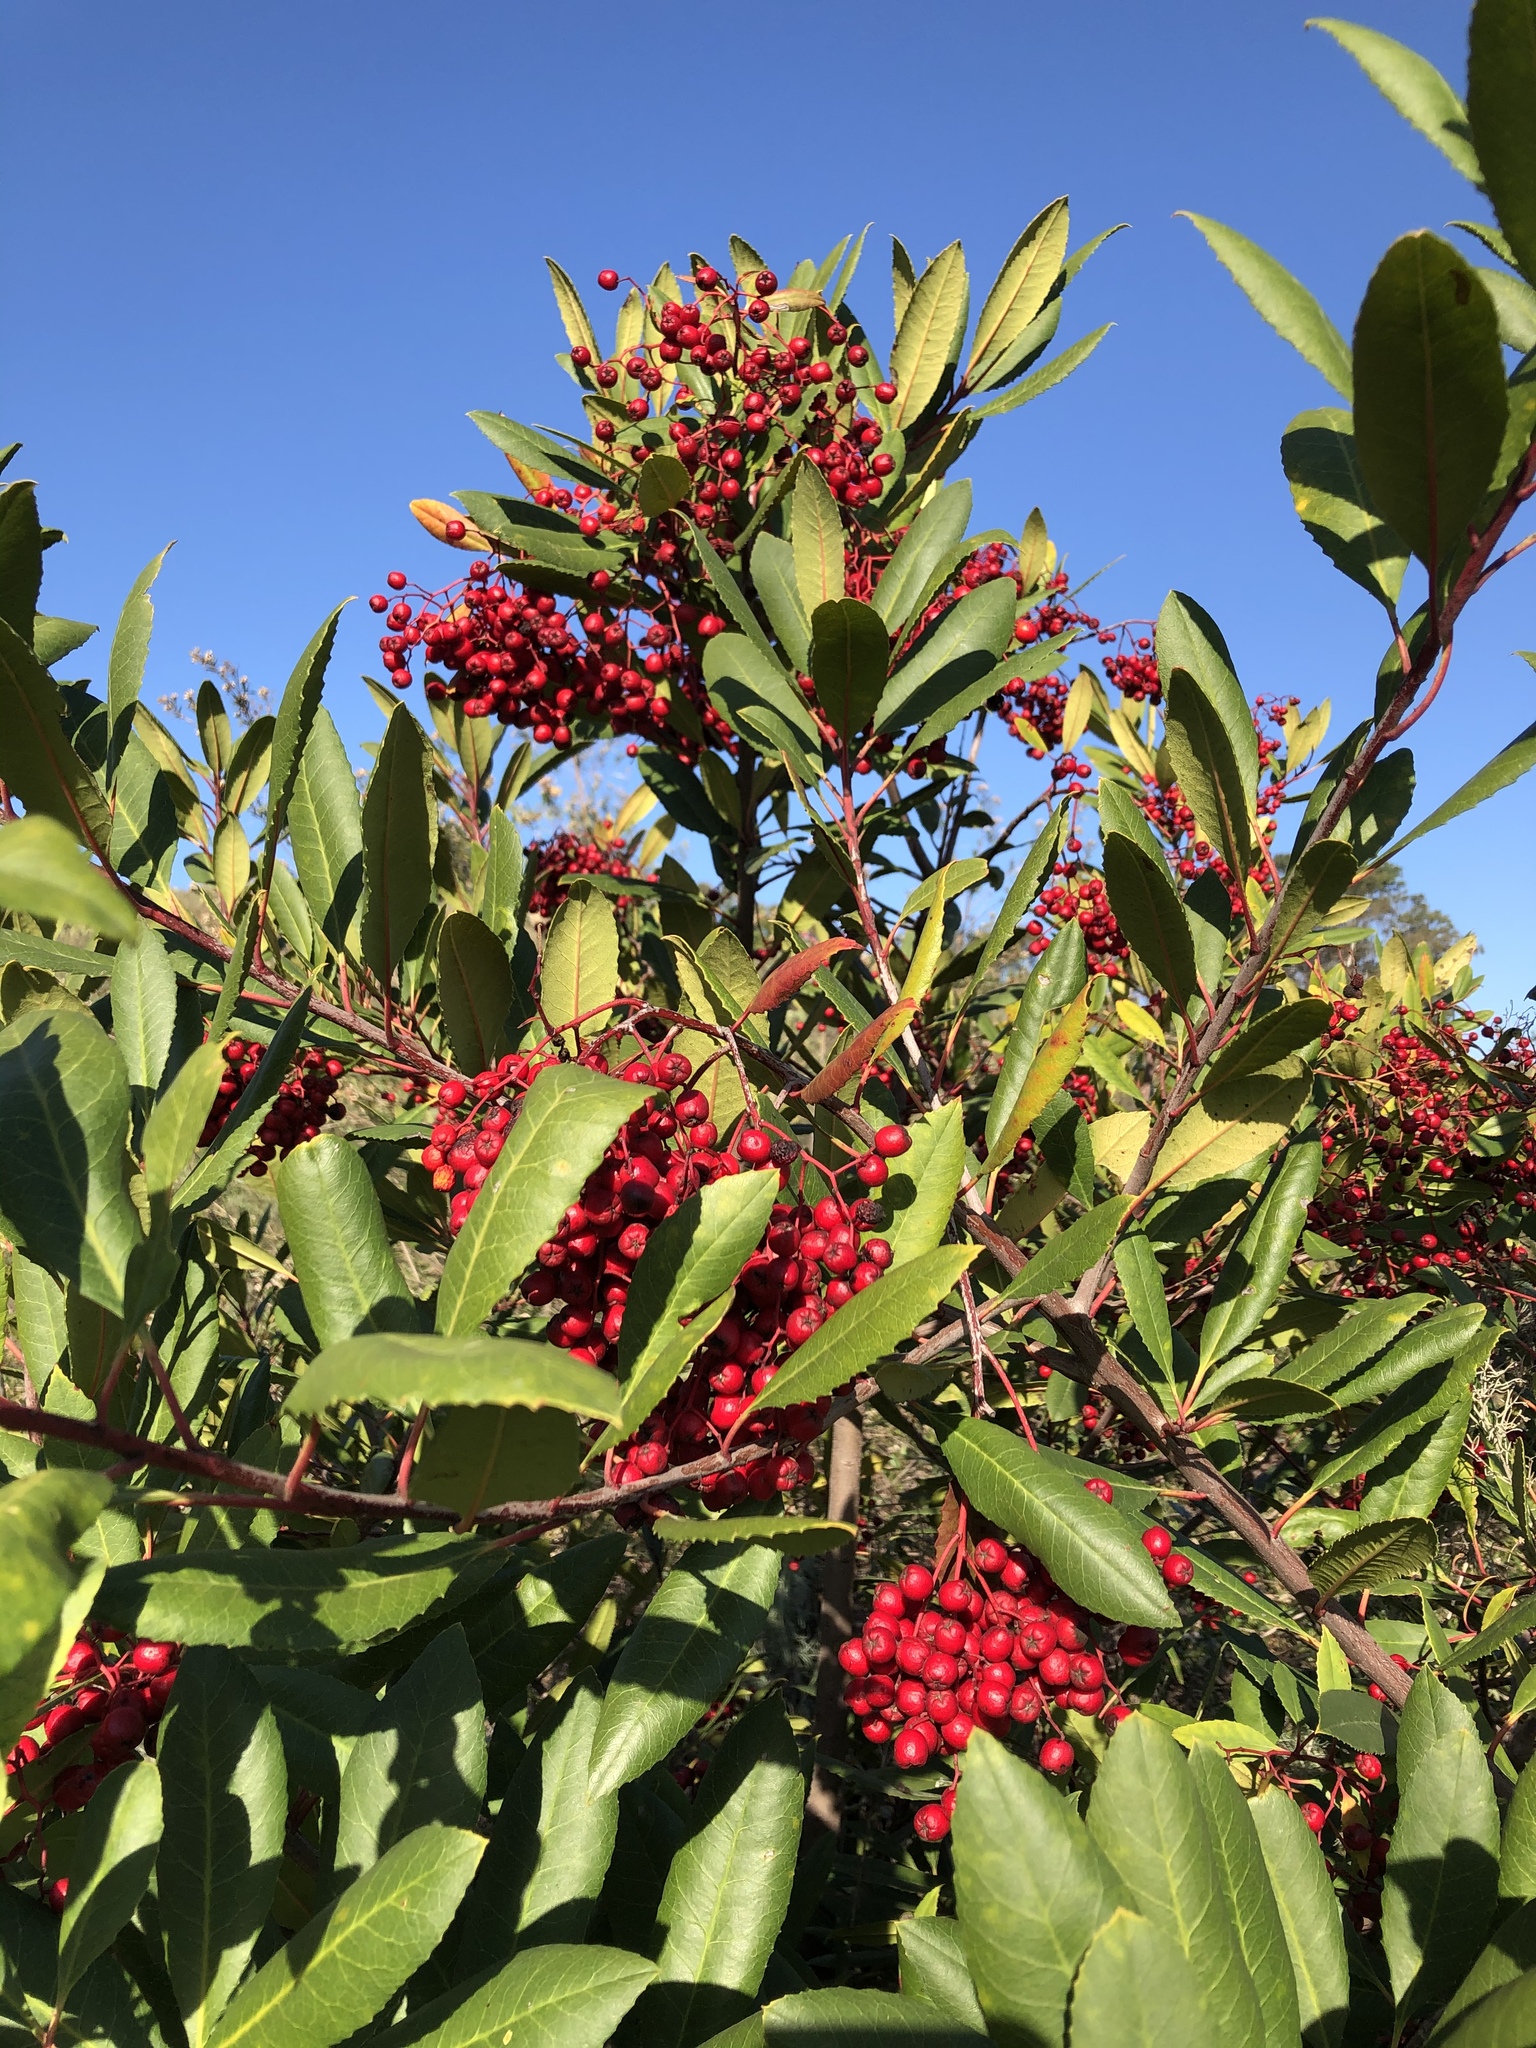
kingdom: Plantae
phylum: Tracheophyta
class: Magnoliopsida
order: Rosales
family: Rosaceae
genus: Heteromeles
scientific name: Heteromeles arbutifolia
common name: California-holly
